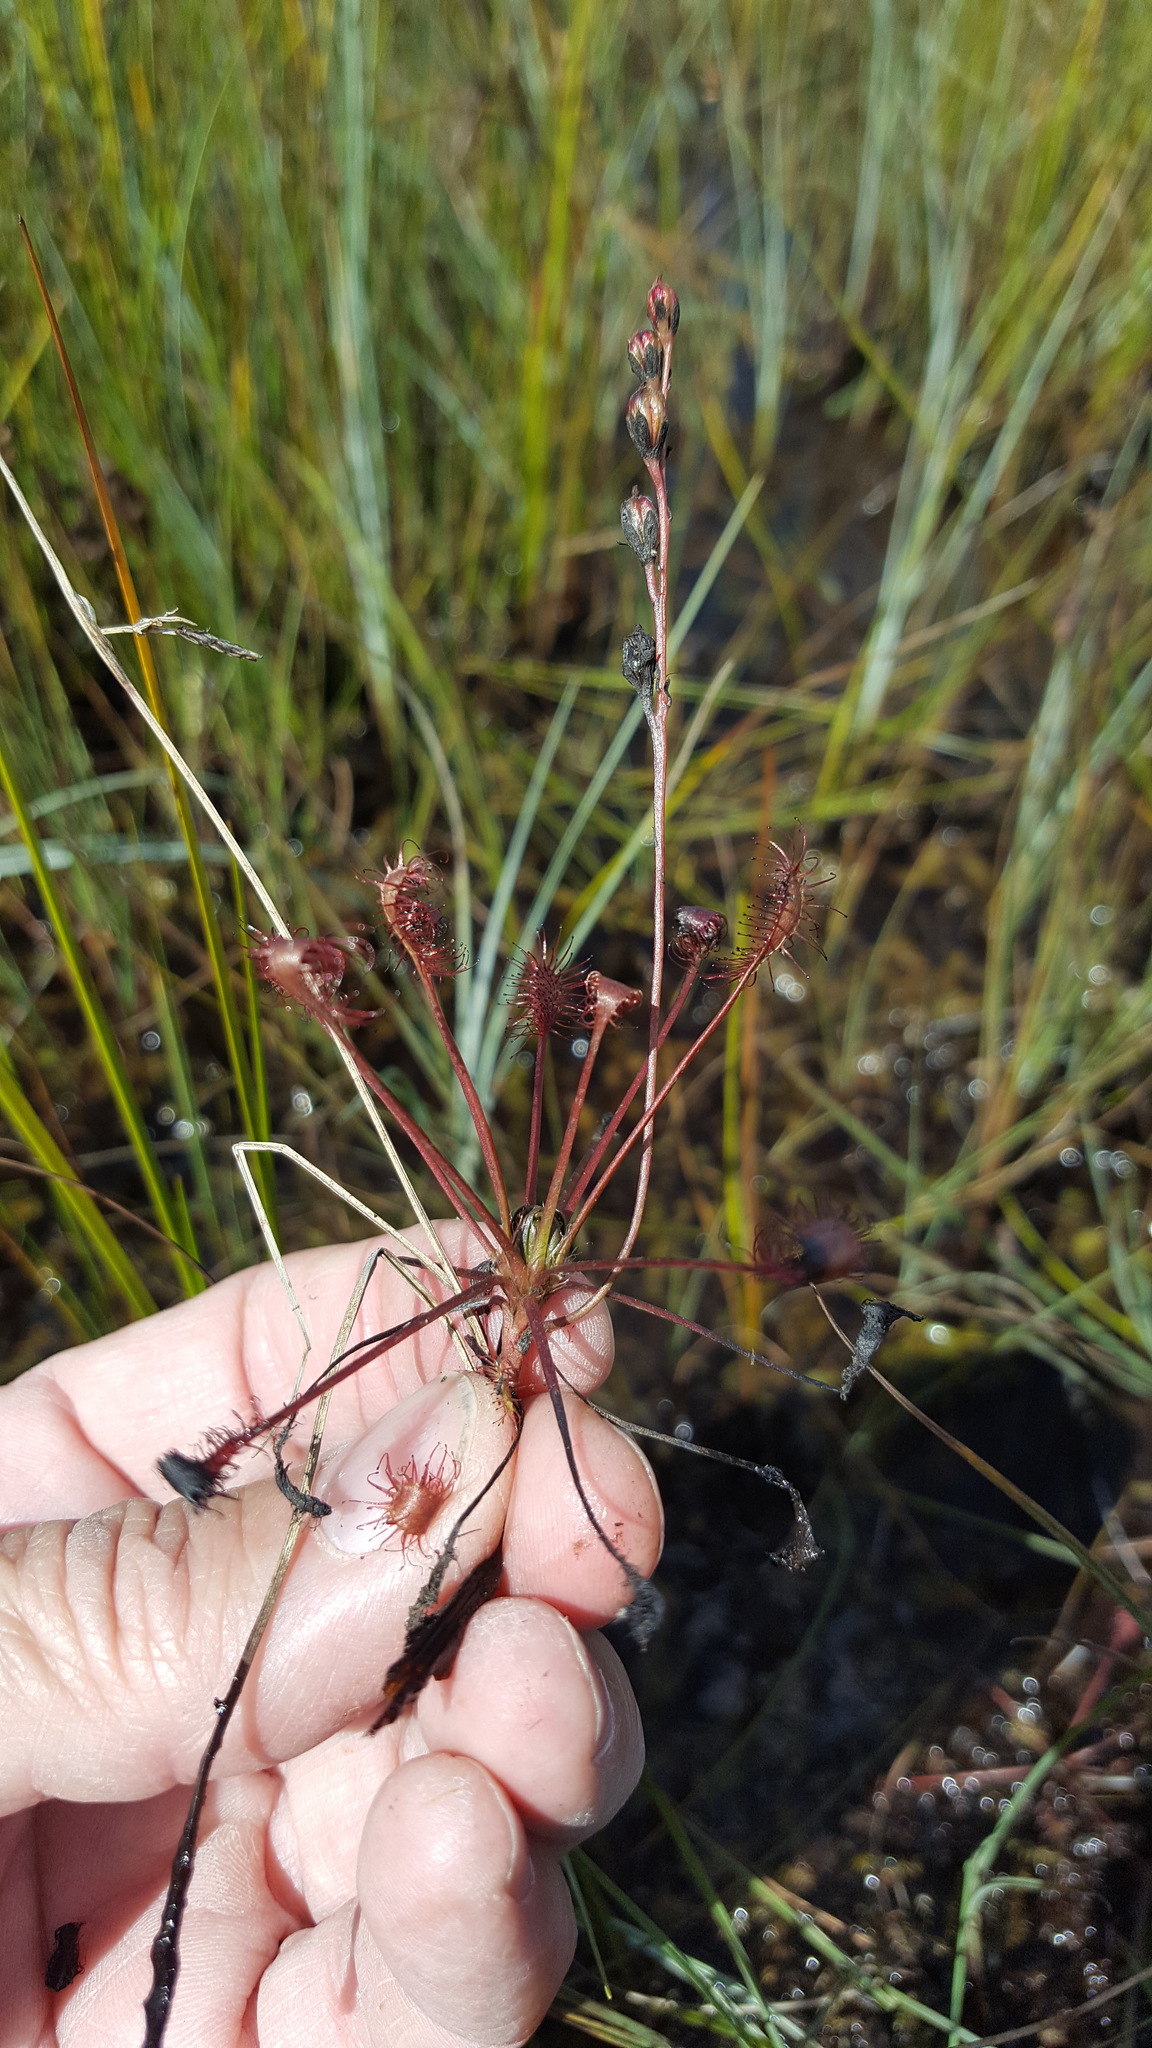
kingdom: Plantae
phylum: Tracheophyta
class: Magnoliopsida
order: Caryophyllales
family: Droseraceae
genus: Drosera
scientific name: Drosera intermedia
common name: Oblong-leaved sundew
